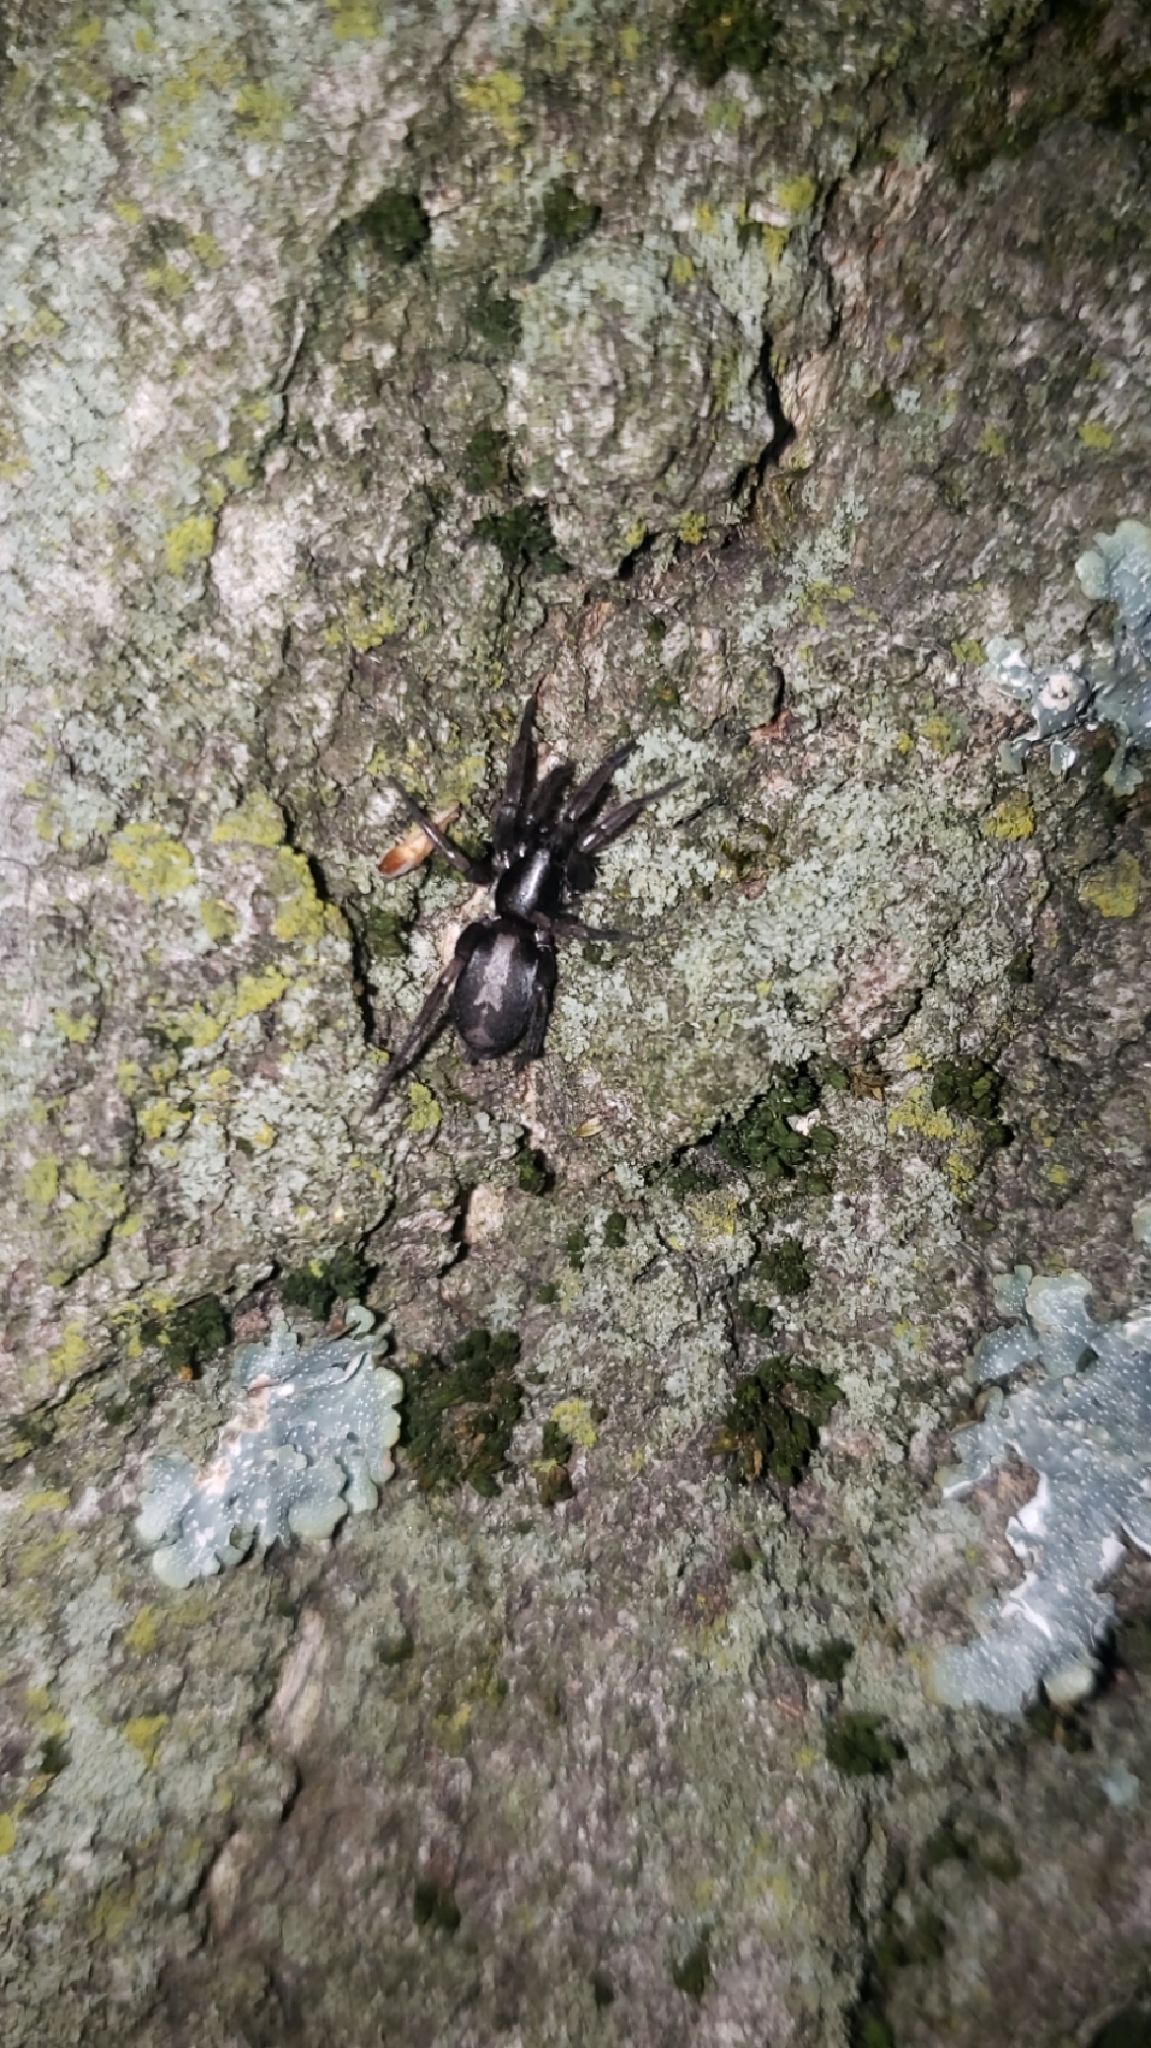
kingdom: Animalia
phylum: Arthropoda
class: Arachnida
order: Araneae
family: Gnaphosidae
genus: Herpyllus
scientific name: Herpyllus ecclesiasticus
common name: Eastern parson spider
